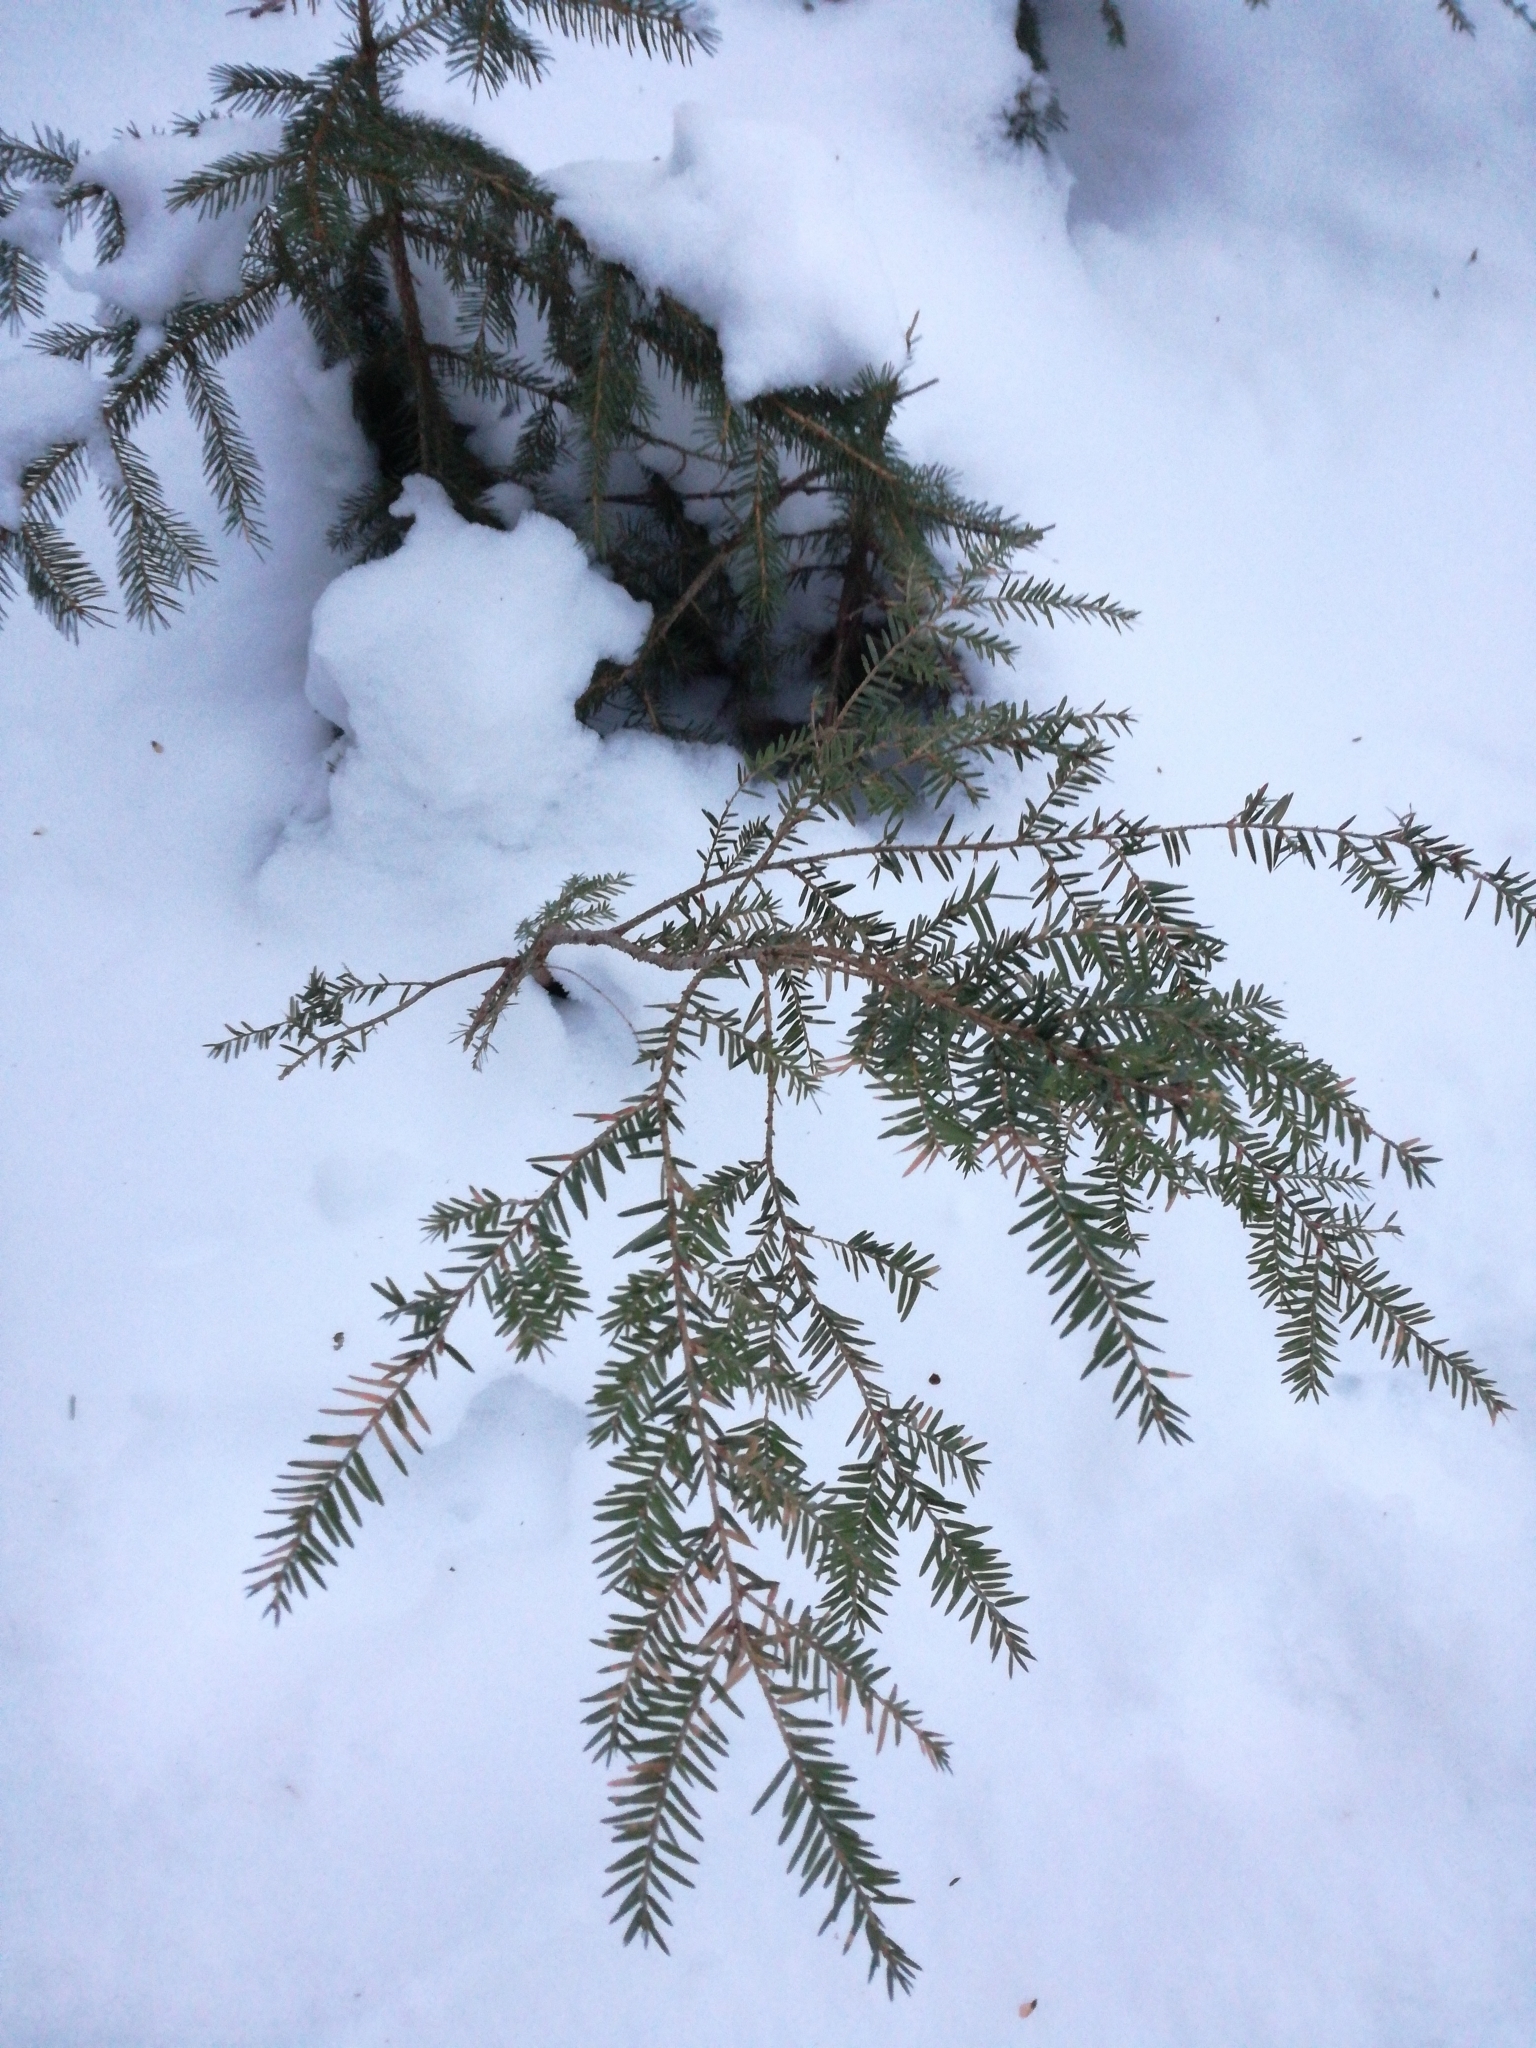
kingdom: Plantae
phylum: Tracheophyta
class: Pinopsida
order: Pinales
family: Pinaceae
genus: Tsuga
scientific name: Tsuga canadensis
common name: Eastern hemlock
